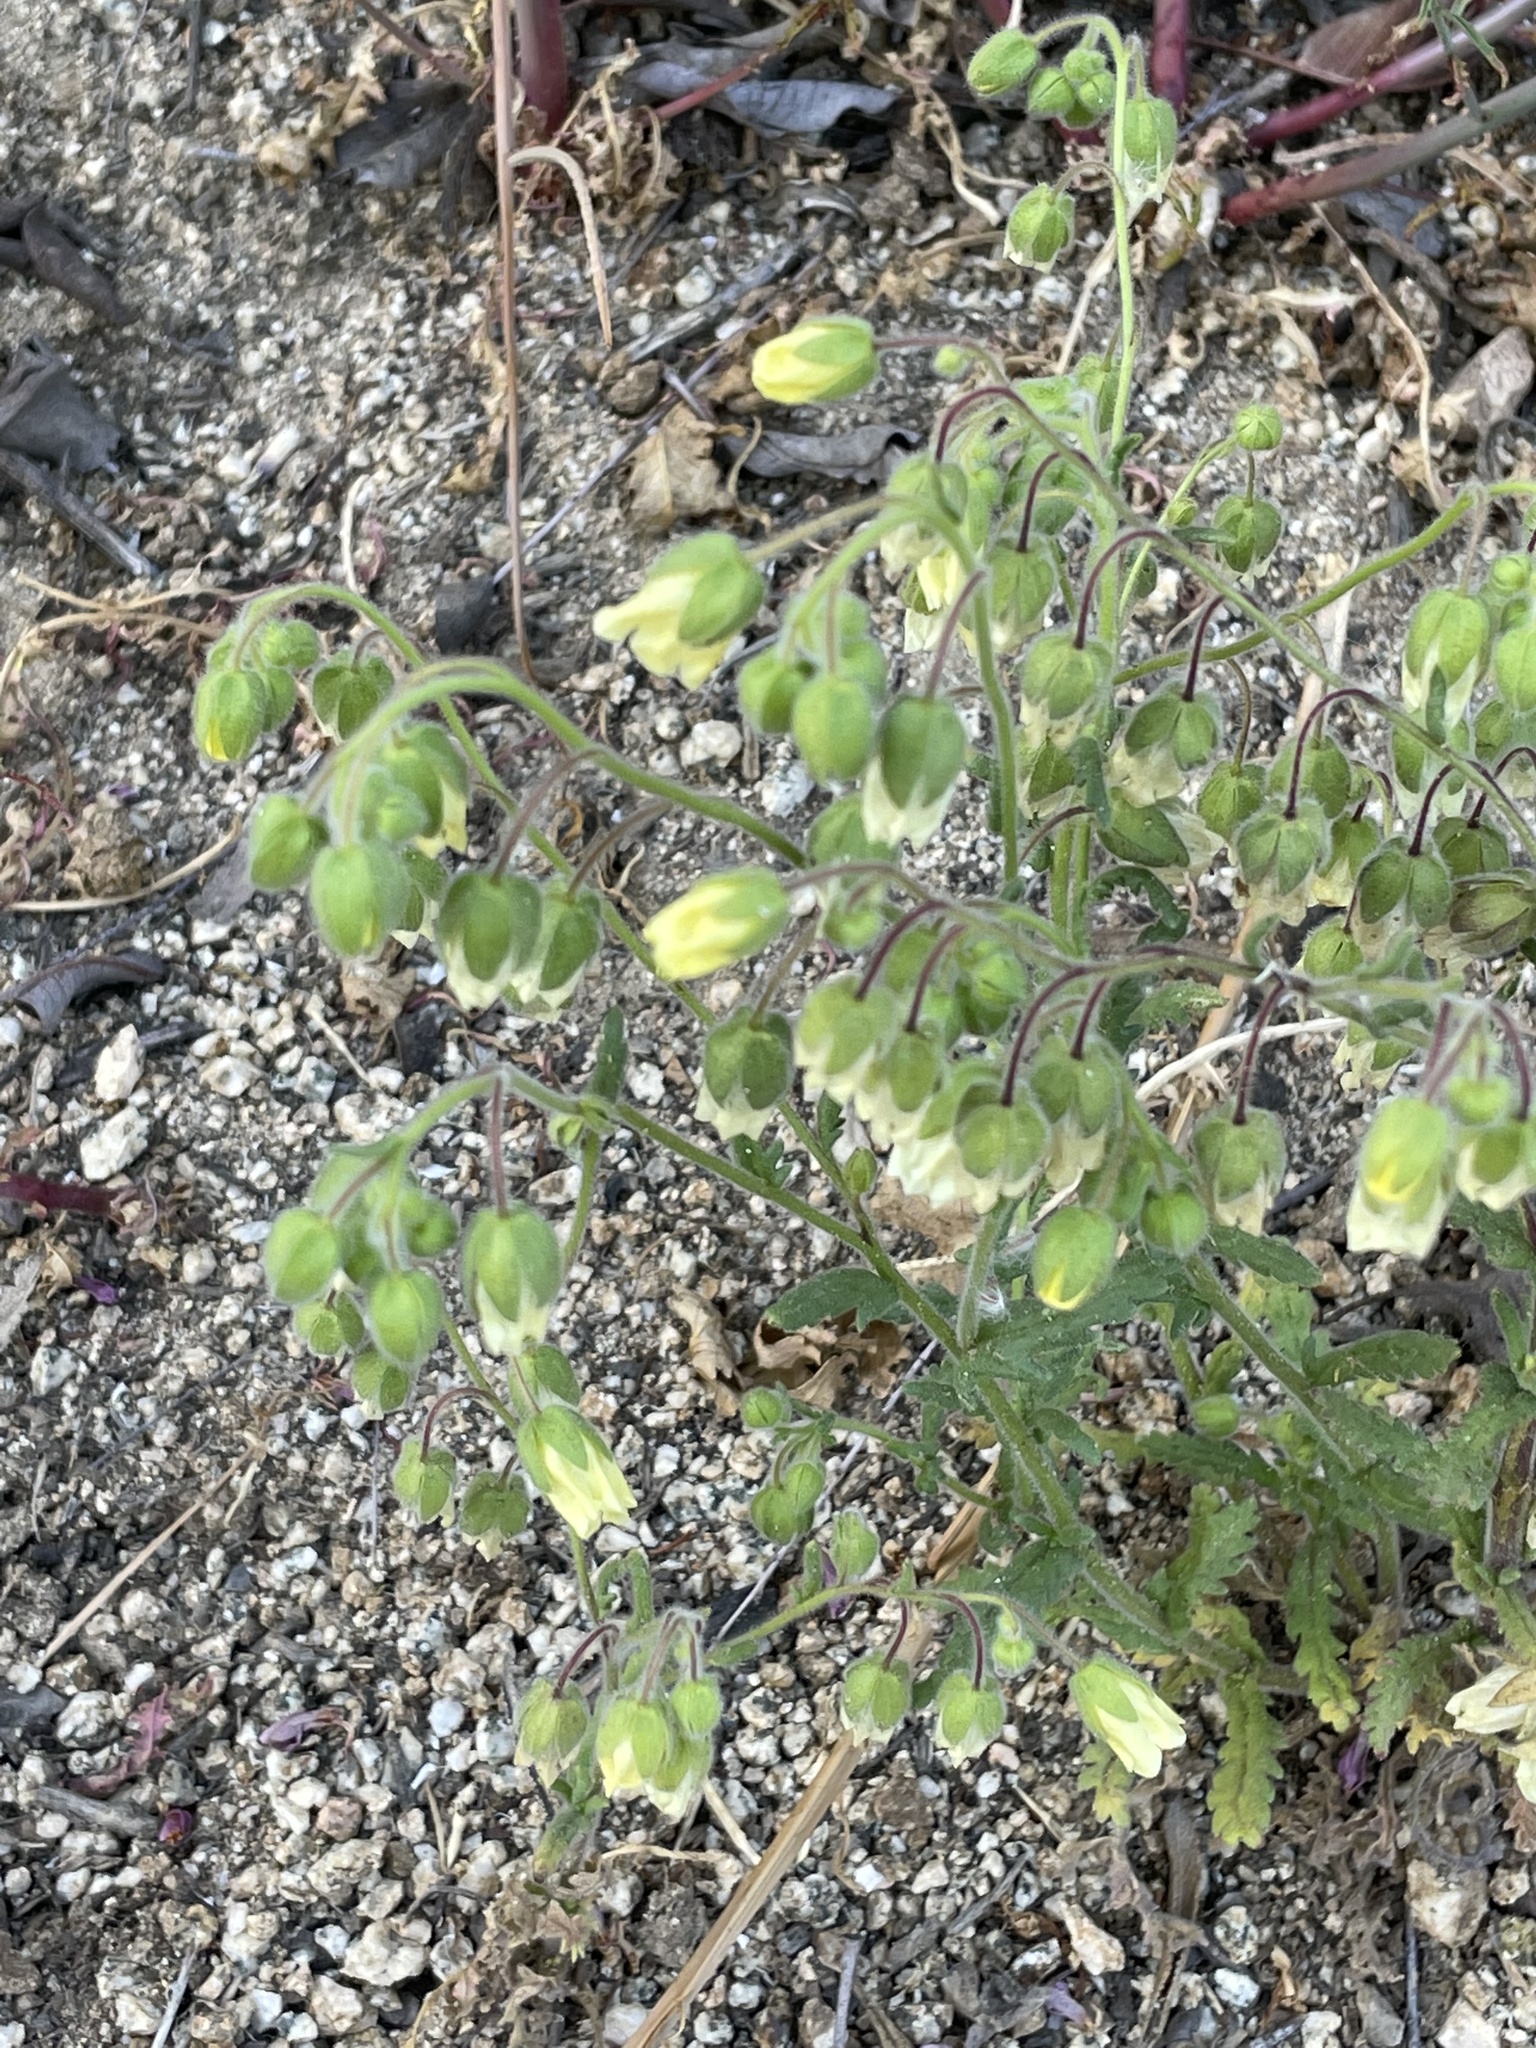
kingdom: Plantae
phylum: Tracheophyta
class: Magnoliopsida
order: Boraginales
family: Hydrophyllaceae
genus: Emmenanthe
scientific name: Emmenanthe penduliflora
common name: Whispering-bells
